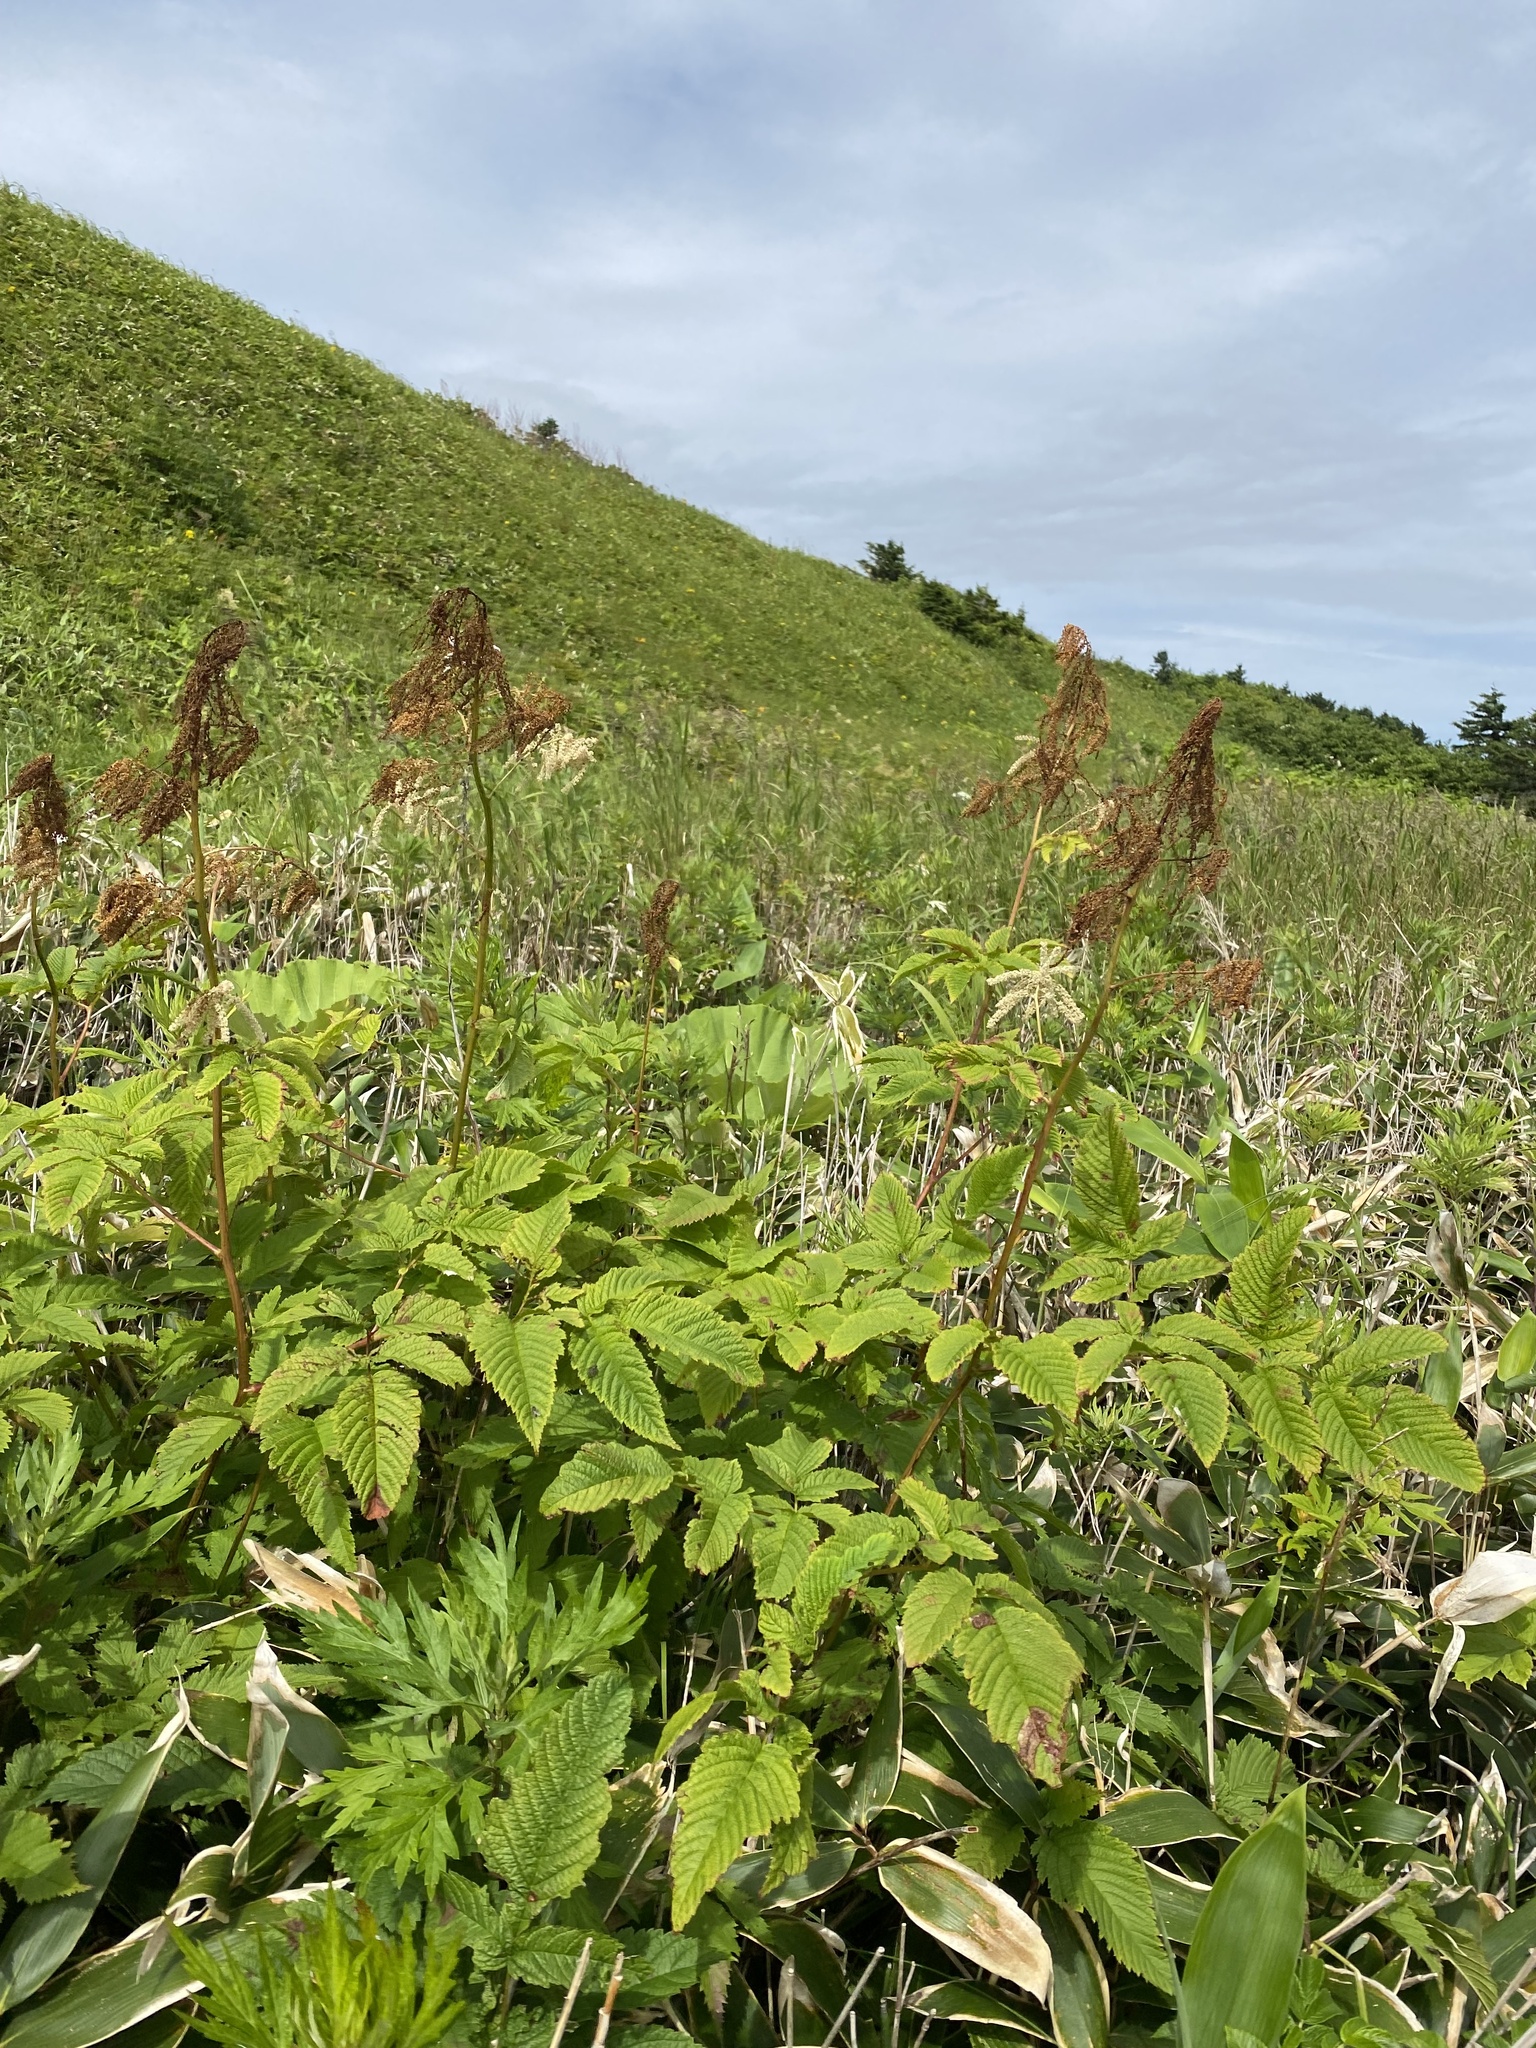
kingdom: Plantae
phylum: Tracheophyta
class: Magnoliopsida
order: Rosales
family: Rosaceae
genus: Aruncus
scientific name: Aruncus dioicus
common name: Buck's-beard
